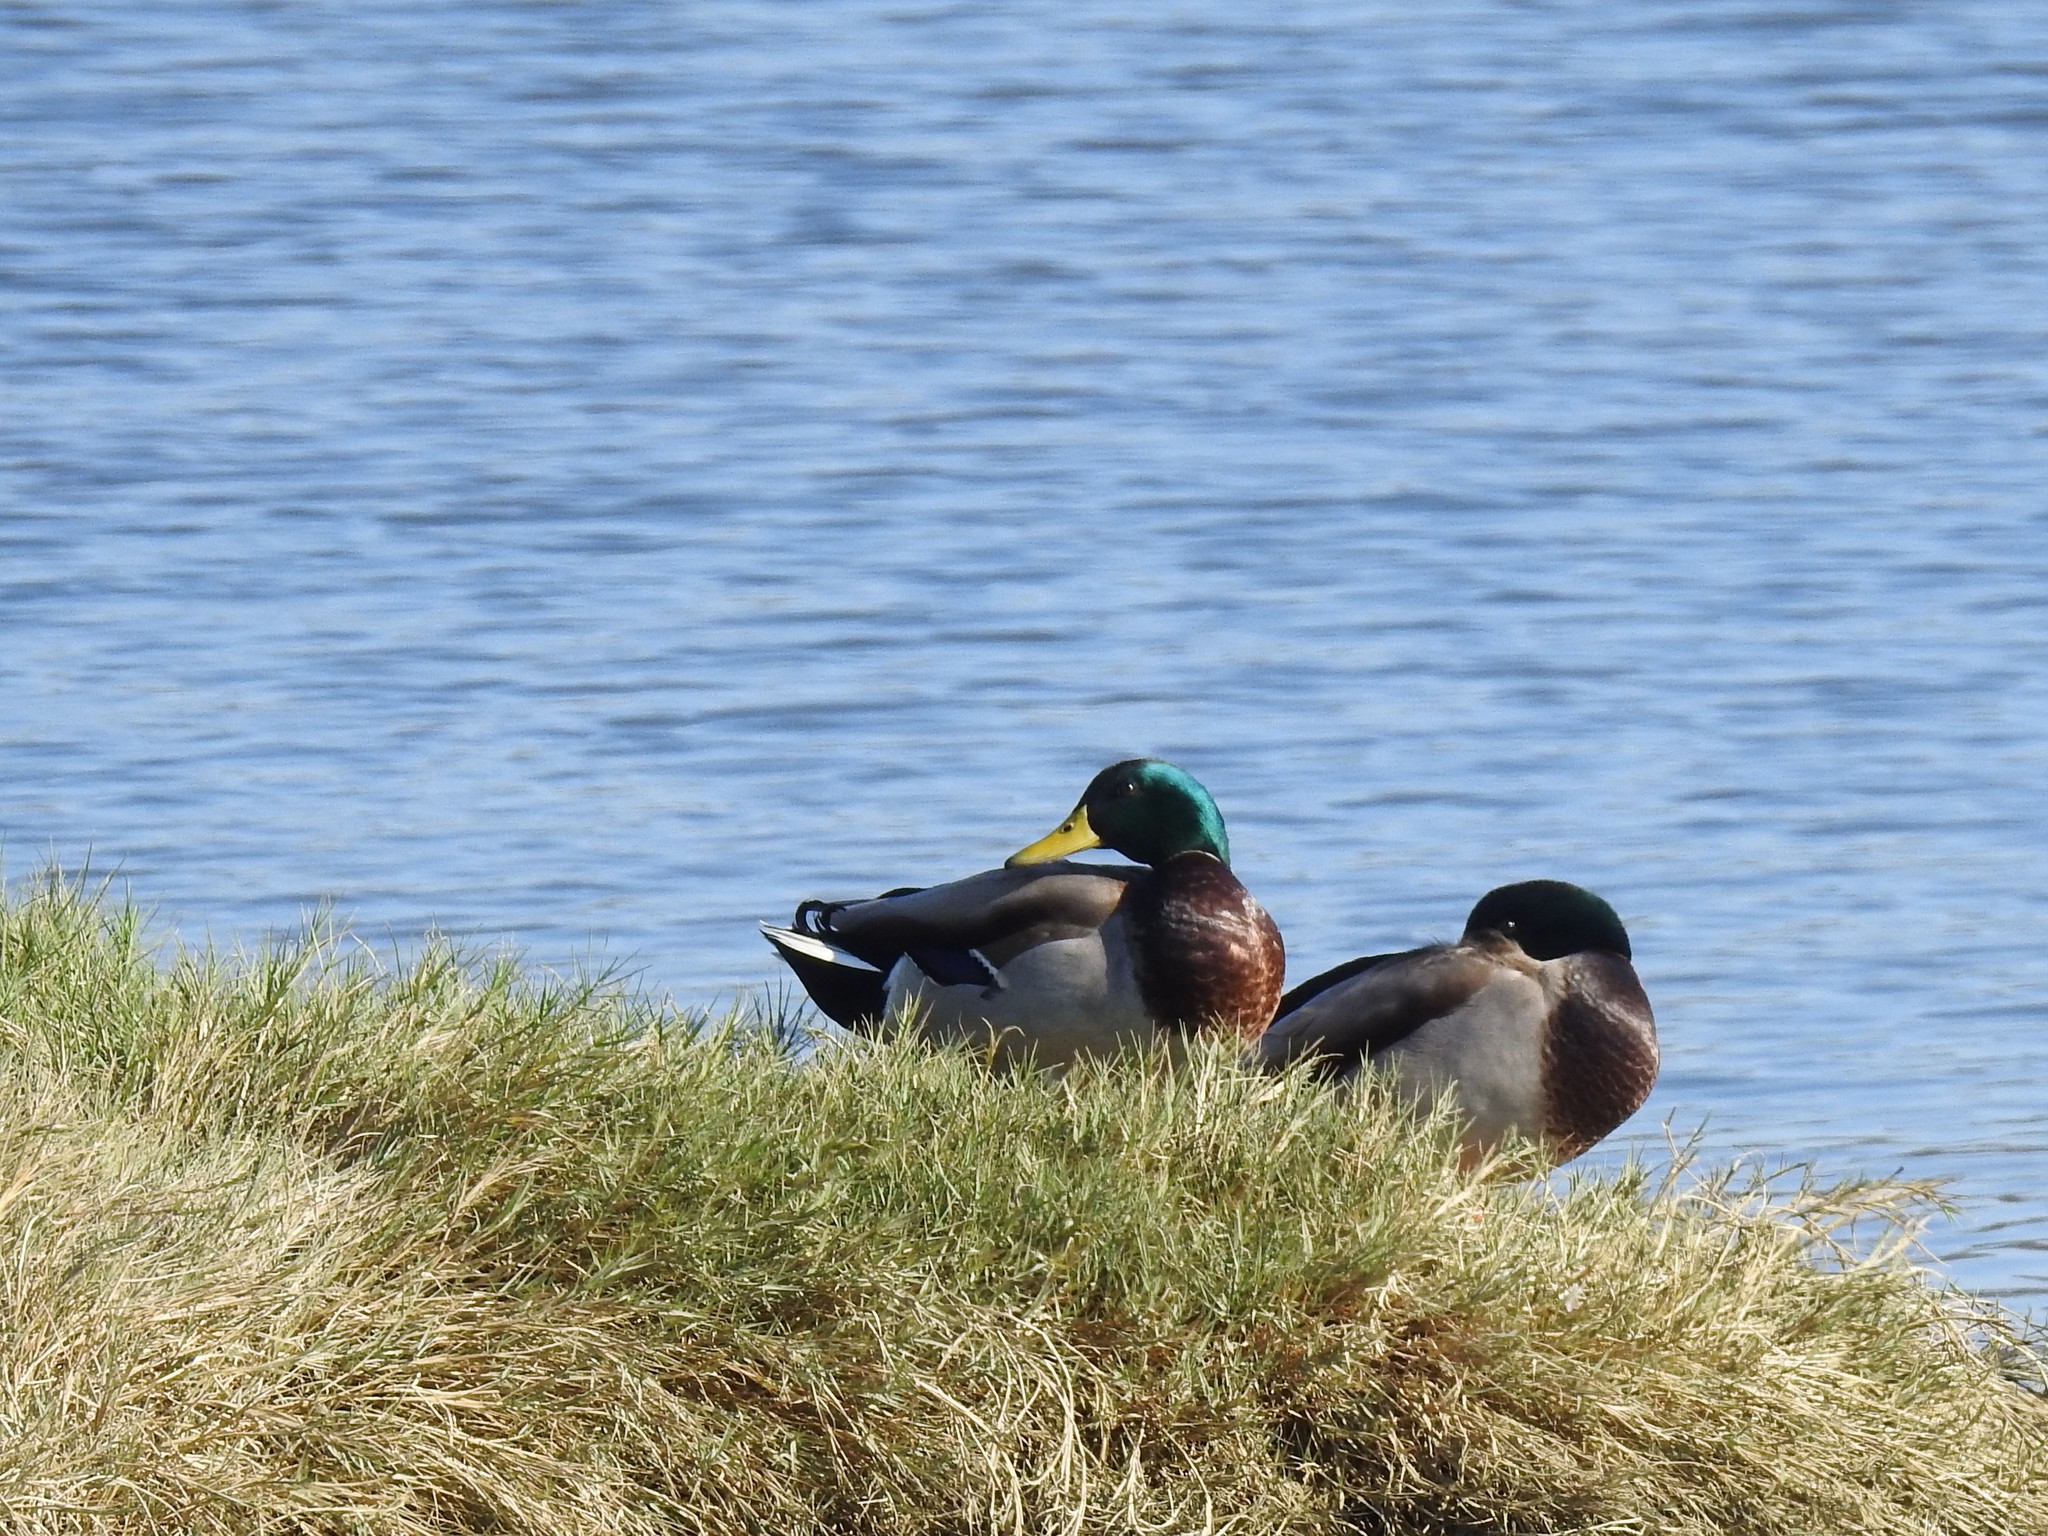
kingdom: Animalia
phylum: Chordata
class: Aves
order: Anseriformes
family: Anatidae
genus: Anas
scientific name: Anas platyrhynchos
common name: Mallard
